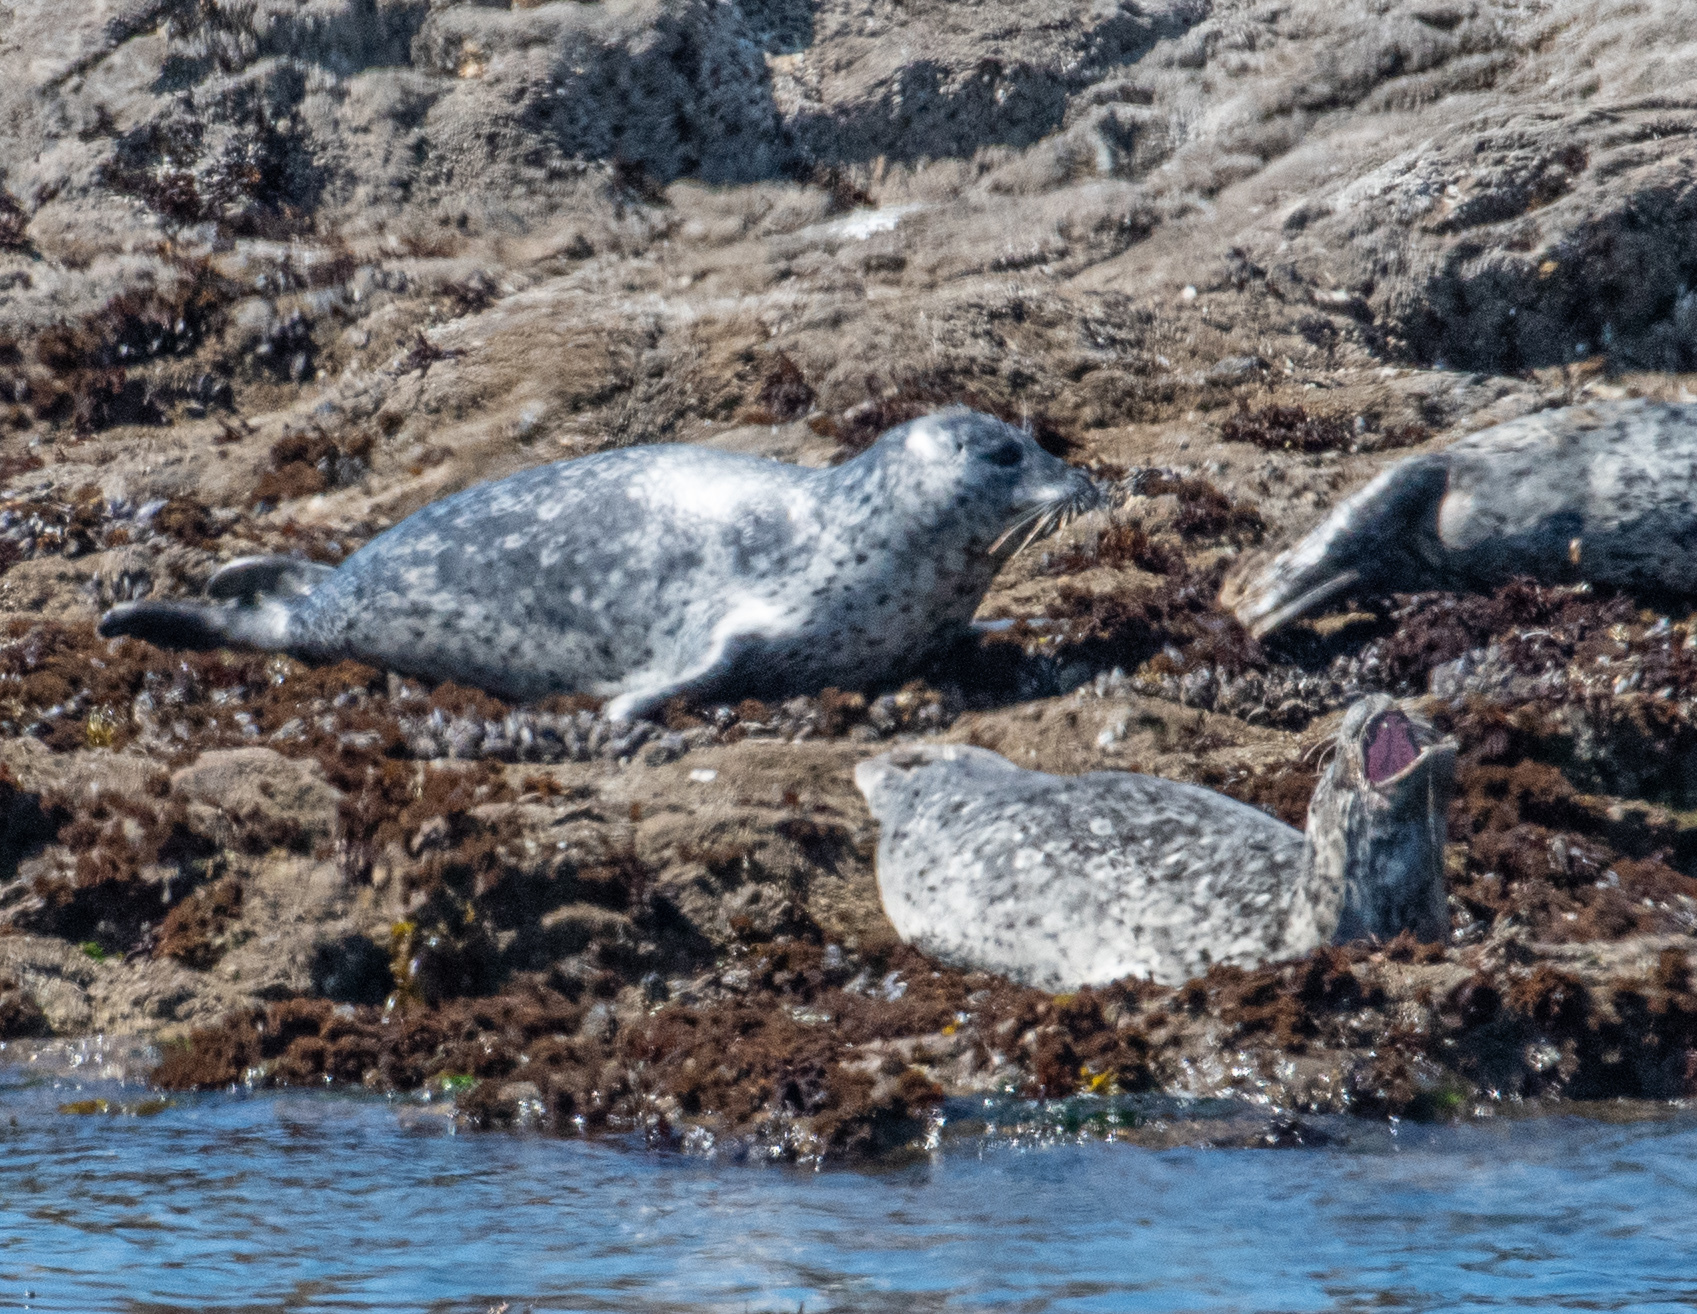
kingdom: Animalia
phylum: Chordata
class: Mammalia
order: Carnivora
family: Phocidae
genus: Phoca
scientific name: Phoca vitulina
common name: Harbor seal
